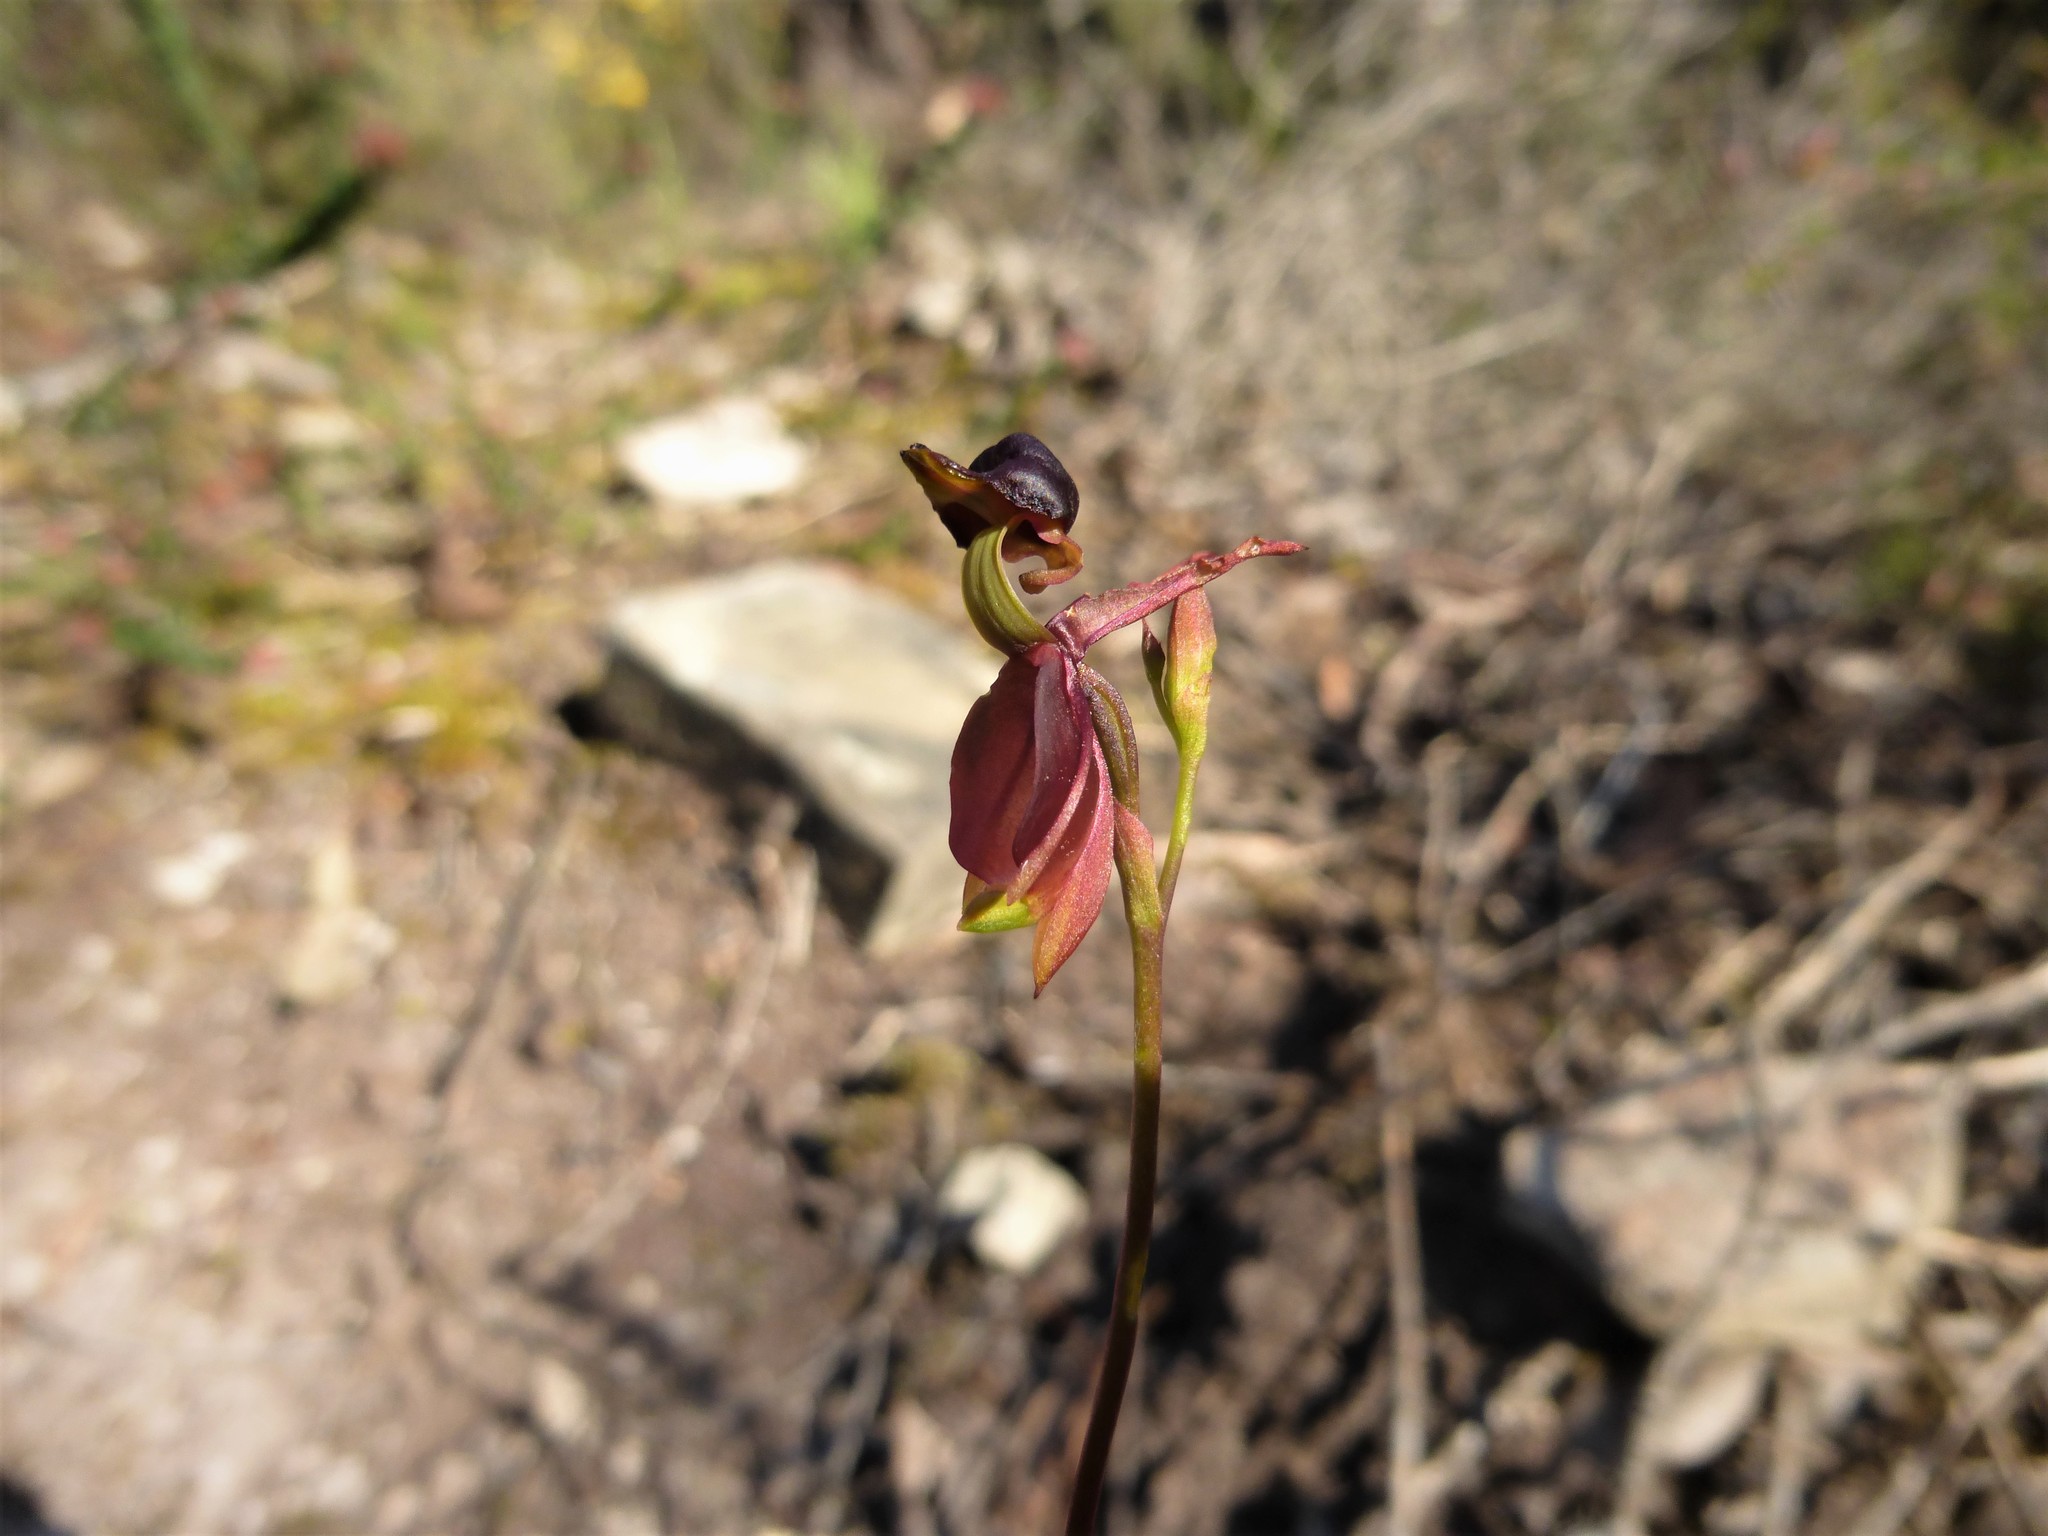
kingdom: Plantae
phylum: Tracheophyta
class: Liliopsida
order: Asparagales
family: Orchidaceae
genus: Caleana
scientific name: Caleana major
